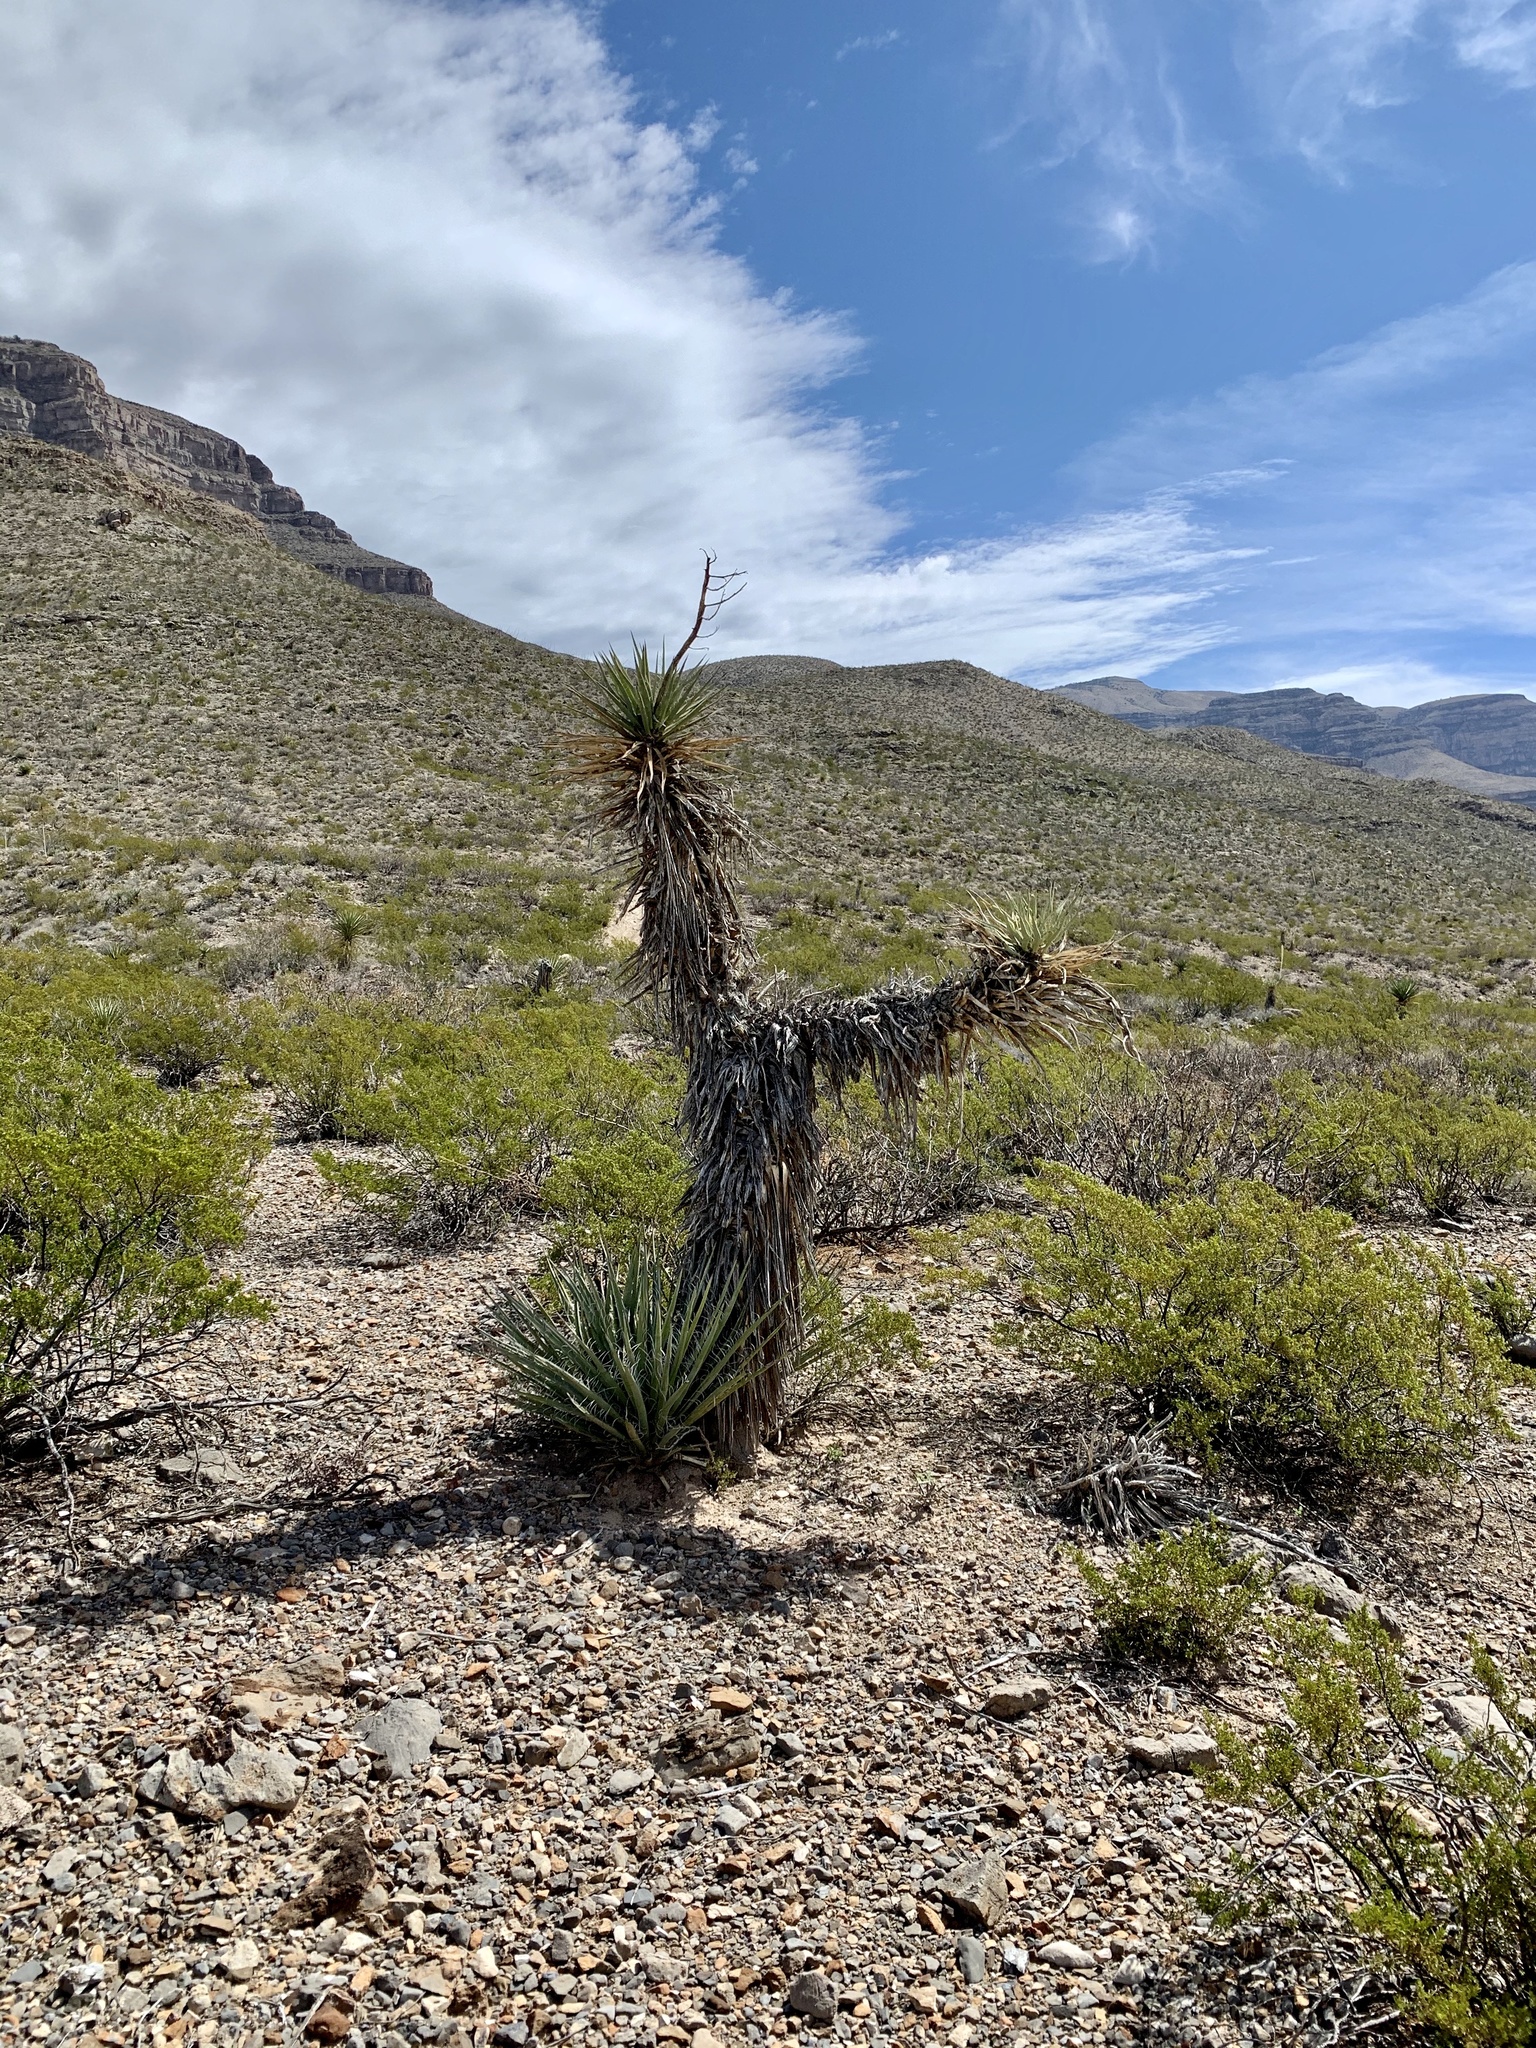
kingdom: Plantae
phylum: Tracheophyta
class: Liliopsida
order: Asparagales
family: Asparagaceae
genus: Yucca
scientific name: Yucca treculiana
